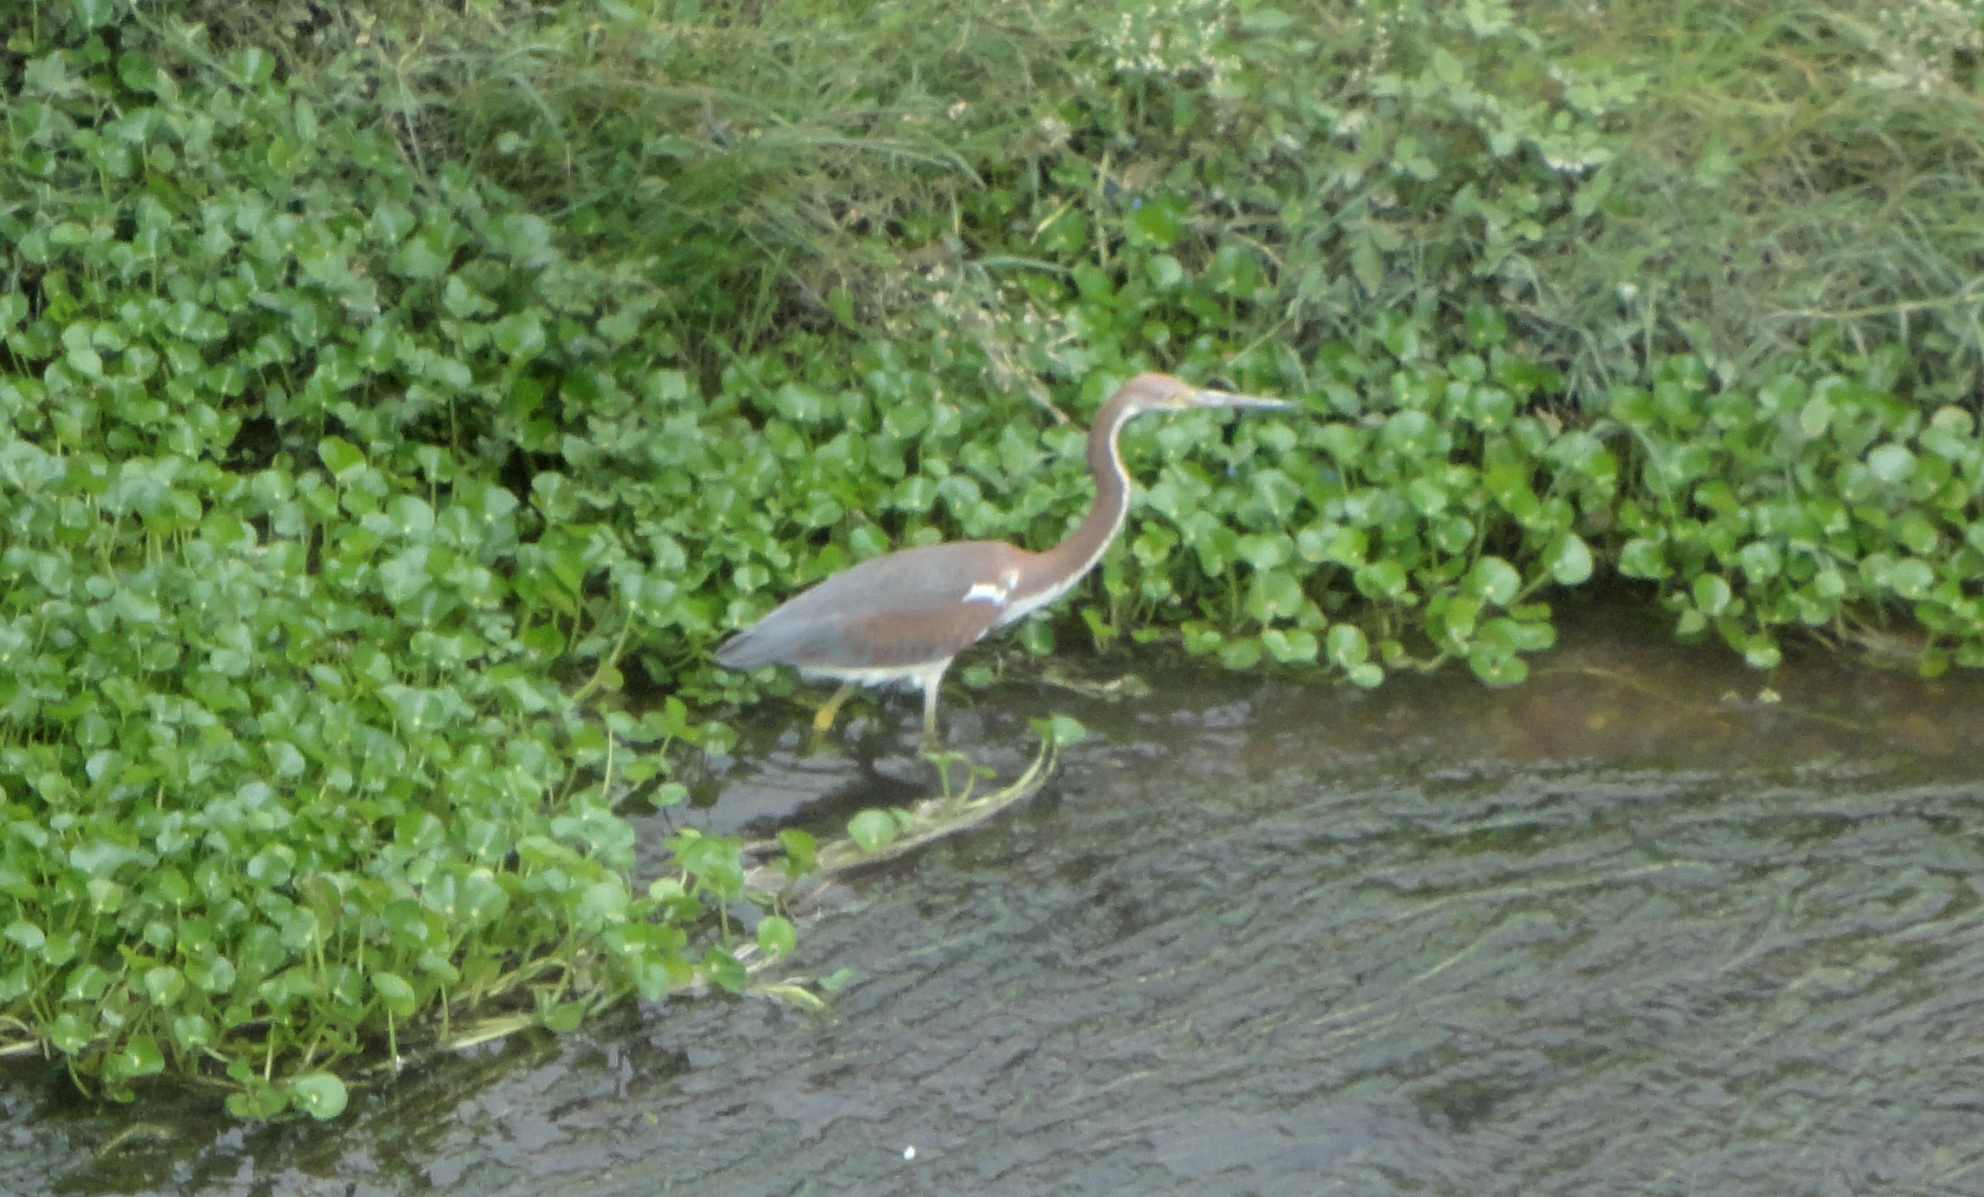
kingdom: Animalia
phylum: Chordata
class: Aves
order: Pelecaniformes
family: Ardeidae
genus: Egretta
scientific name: Egretta tricolor
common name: Tricolored heron
